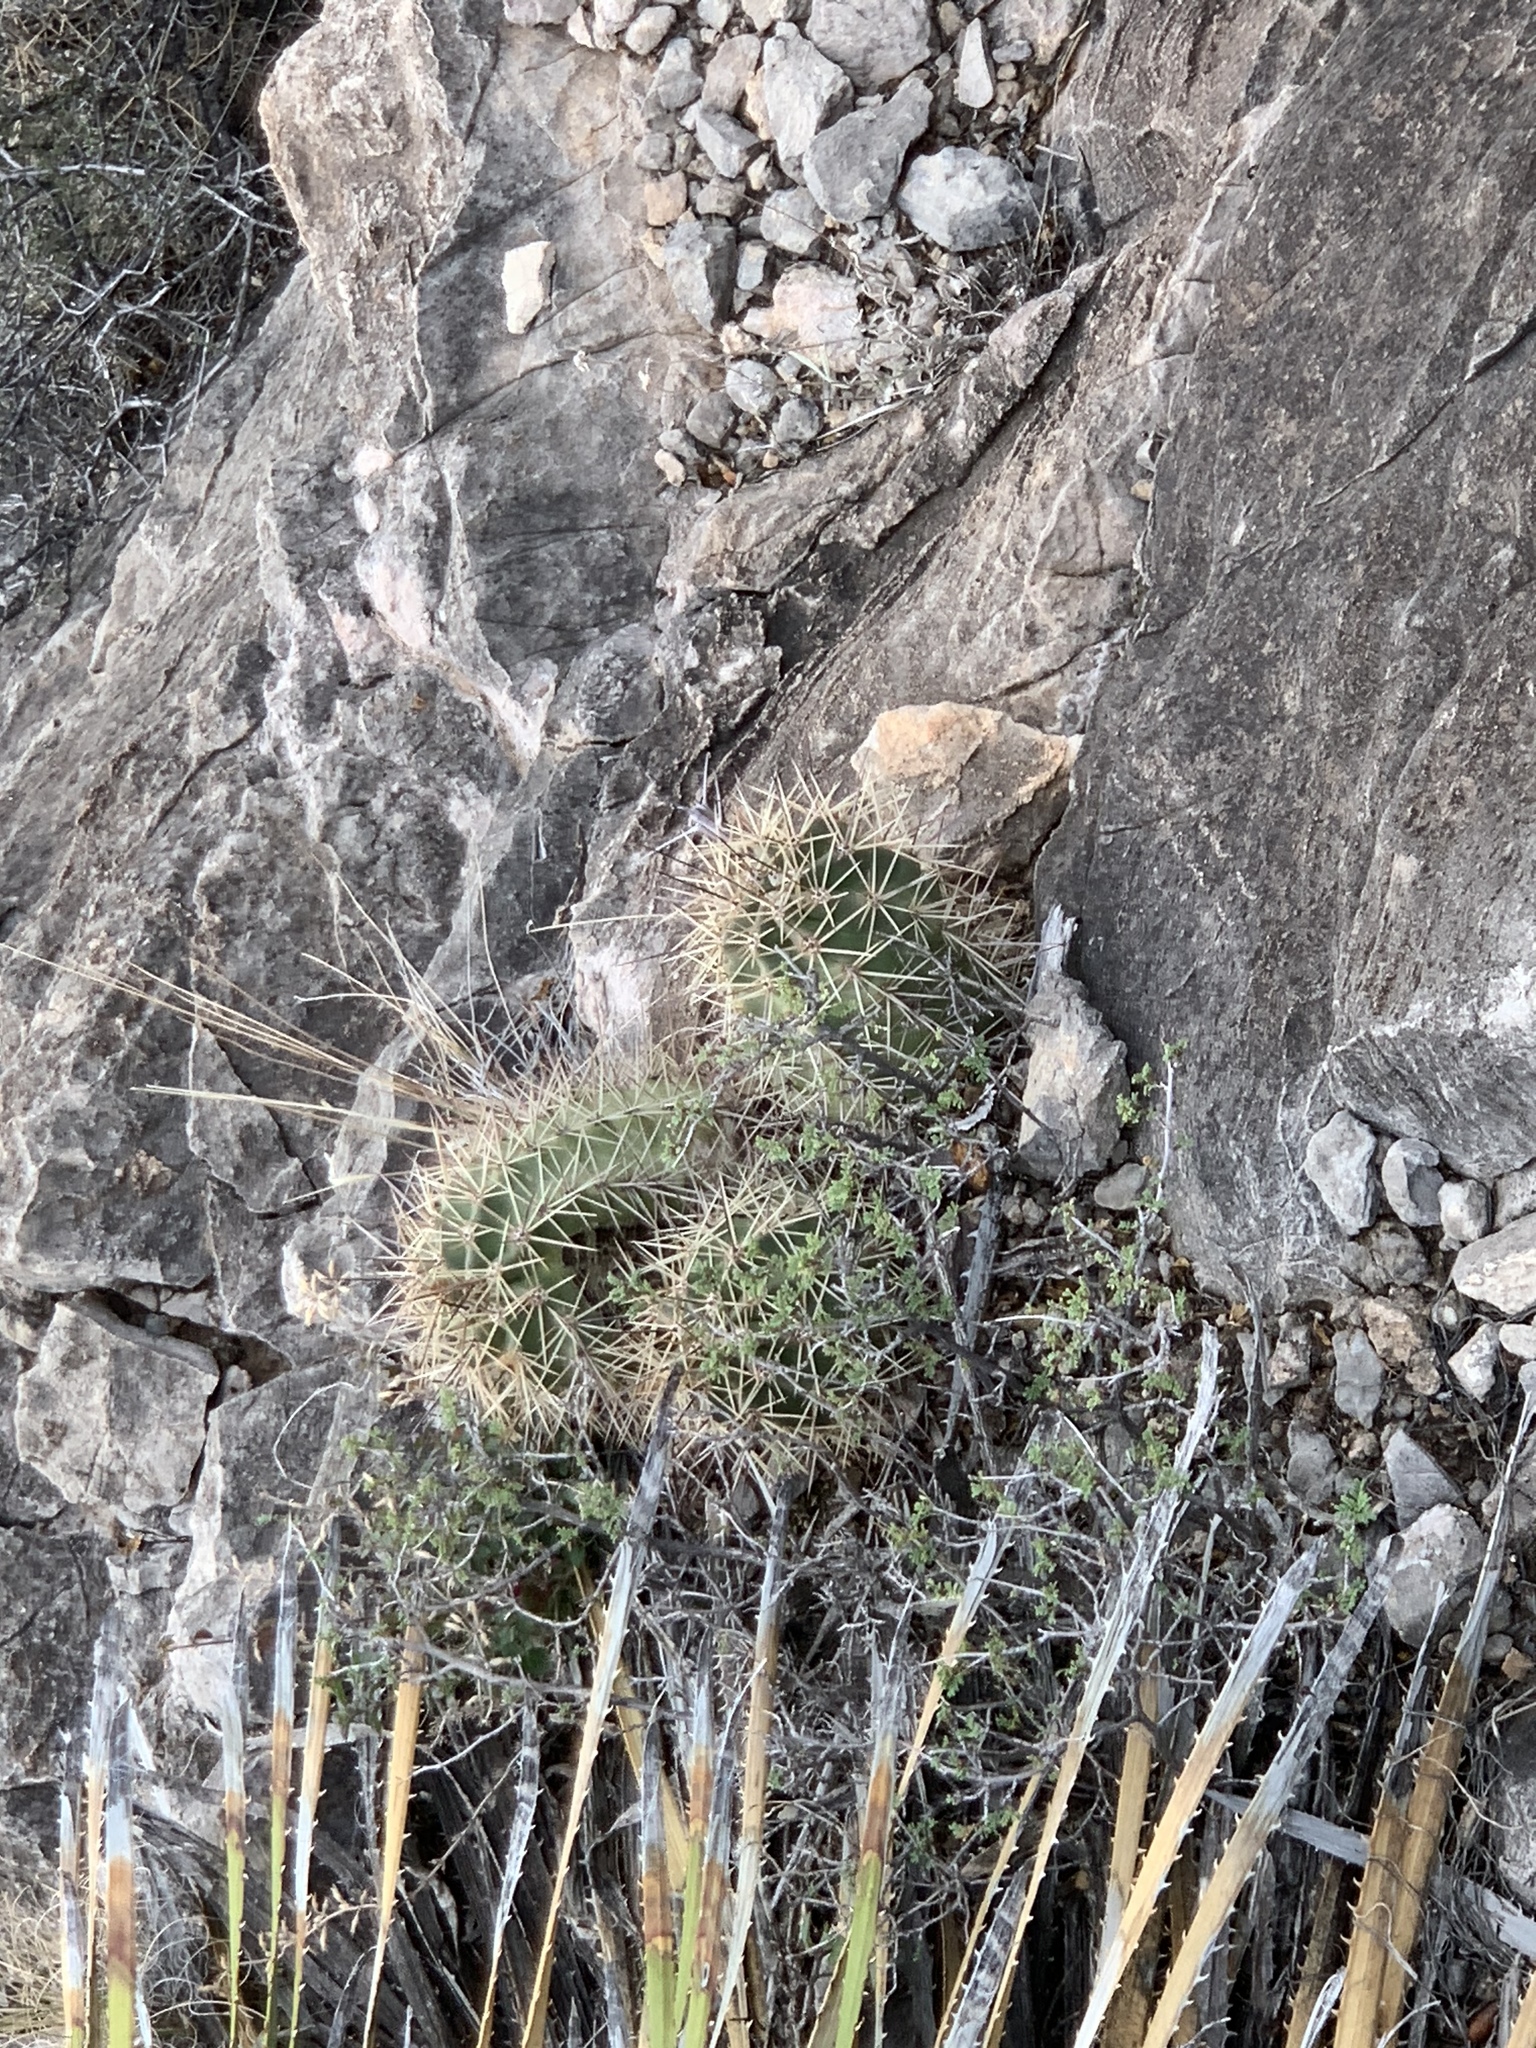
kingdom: Plantae
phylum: Tracheophyta
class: Magnoliopsida
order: Caryophyllales
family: Cactaceae
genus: Echinocereus
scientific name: Echinocereus coccineus
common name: Scarlet hedgehog cactus
